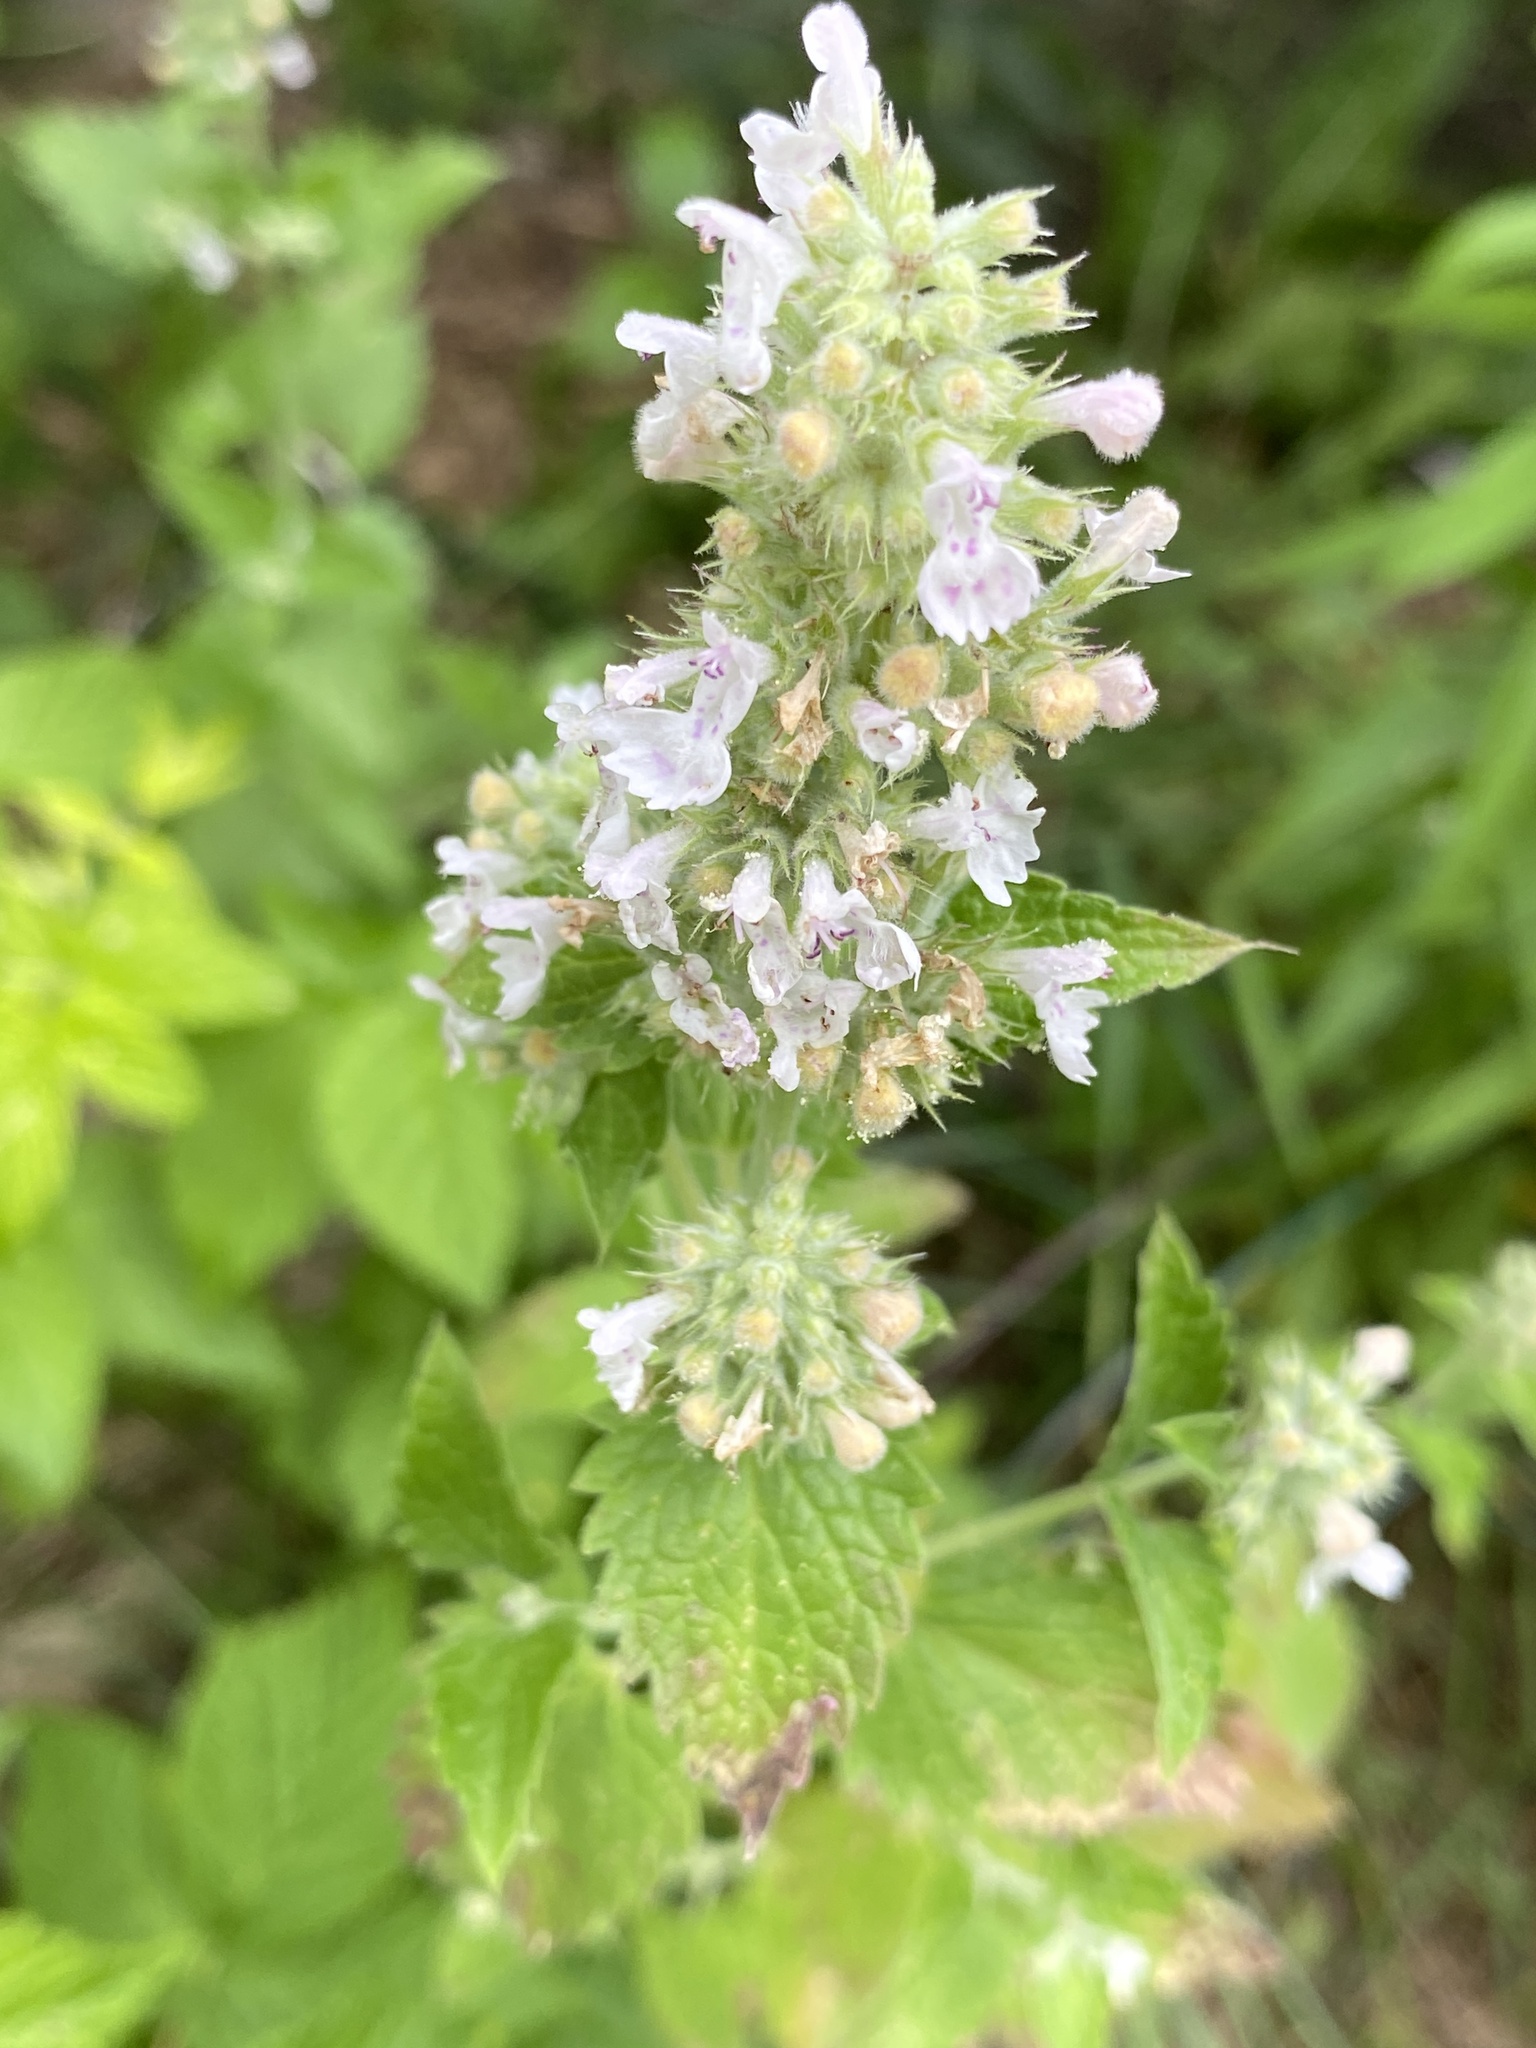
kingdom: Plantae
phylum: Tracheophyta
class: Magnoliopsida
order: Lamiales
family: Lamiaceae
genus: Nepeta
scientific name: Nepeta cataria
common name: Catnip
